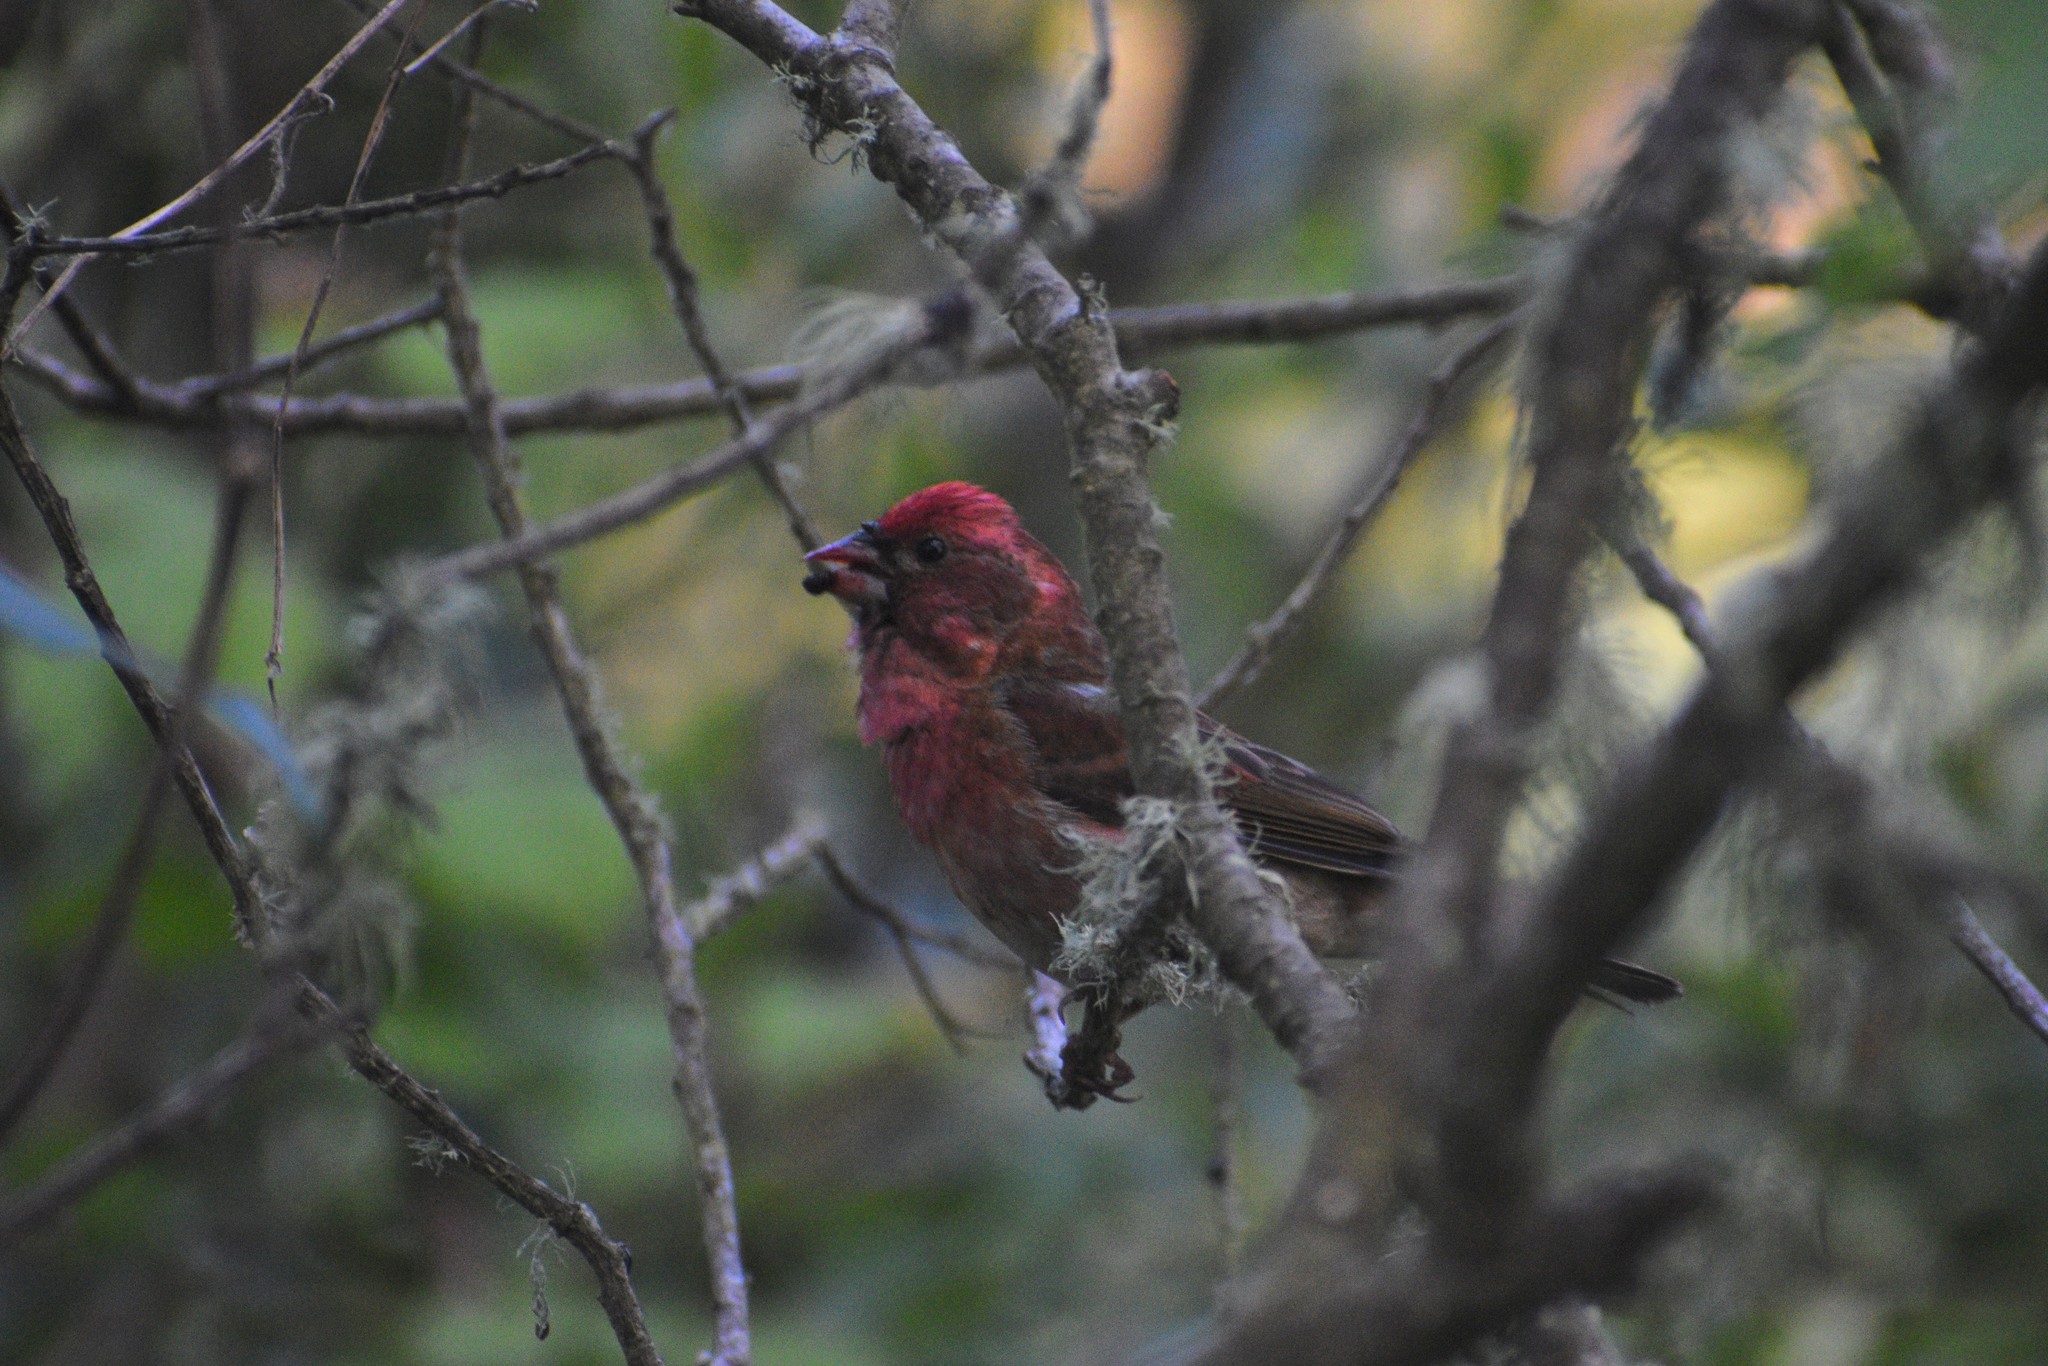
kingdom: Animalia
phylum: Chordata
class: Aves
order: Passeriformes
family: Fringillidae
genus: Haemorhous
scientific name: Haemorhous purpureus
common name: Purple finch
